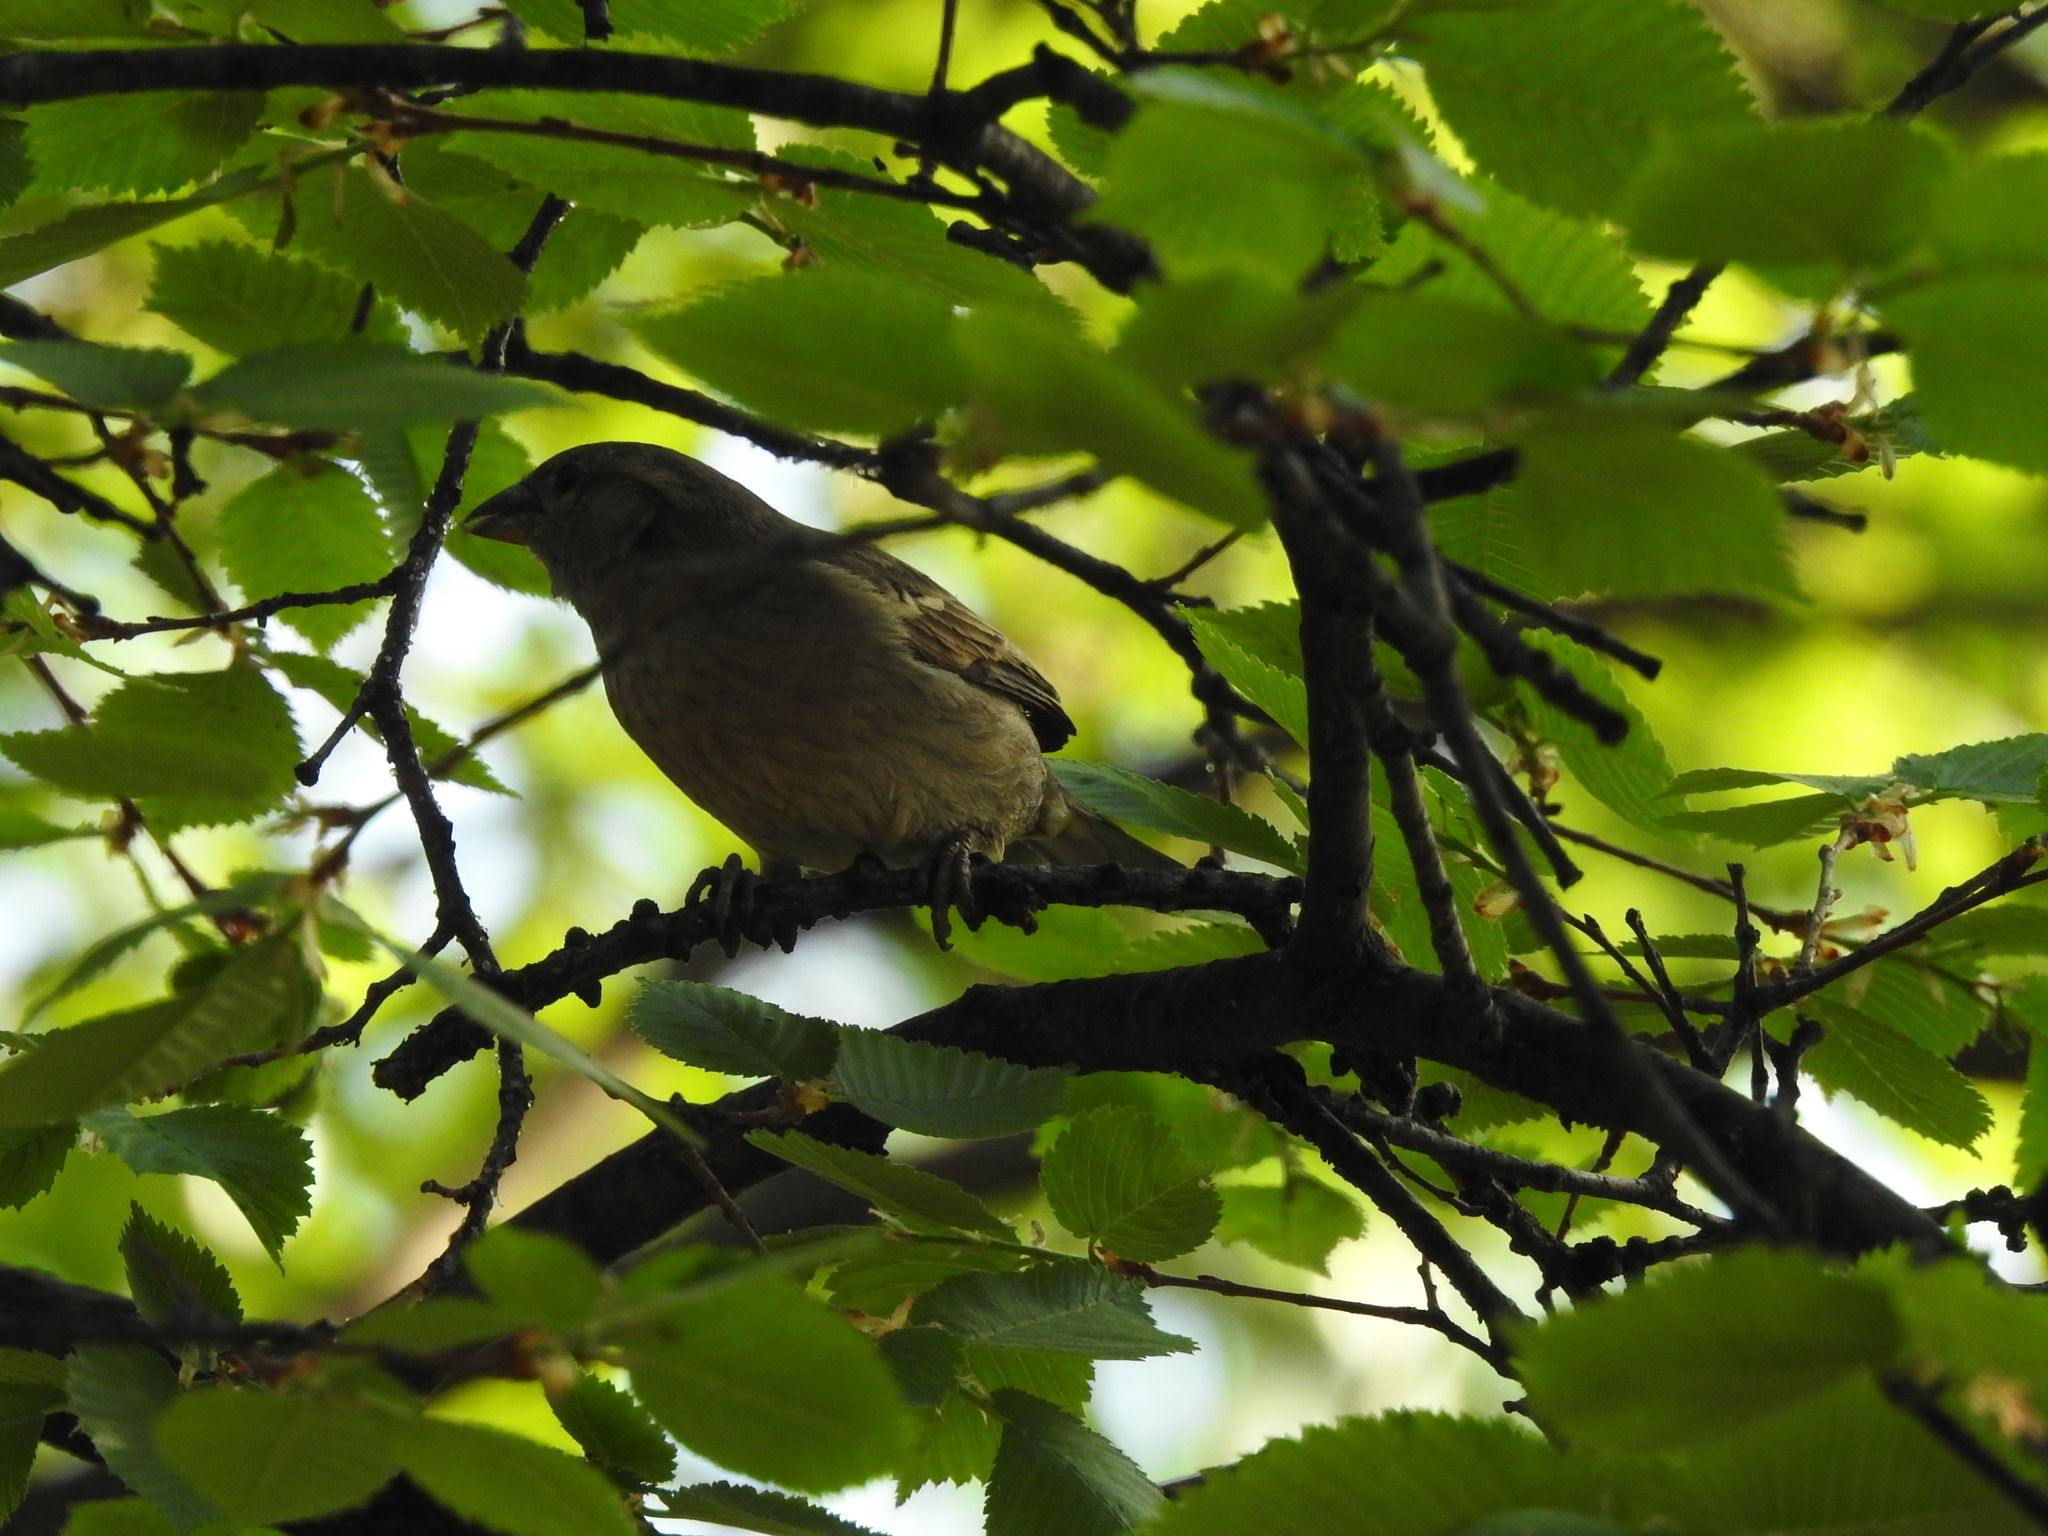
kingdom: Animalia
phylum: Chordata
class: Aves
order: Passeriformes
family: Fringillidae
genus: Fringilla
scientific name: Fringilla coelebs
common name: Common chaffinch
